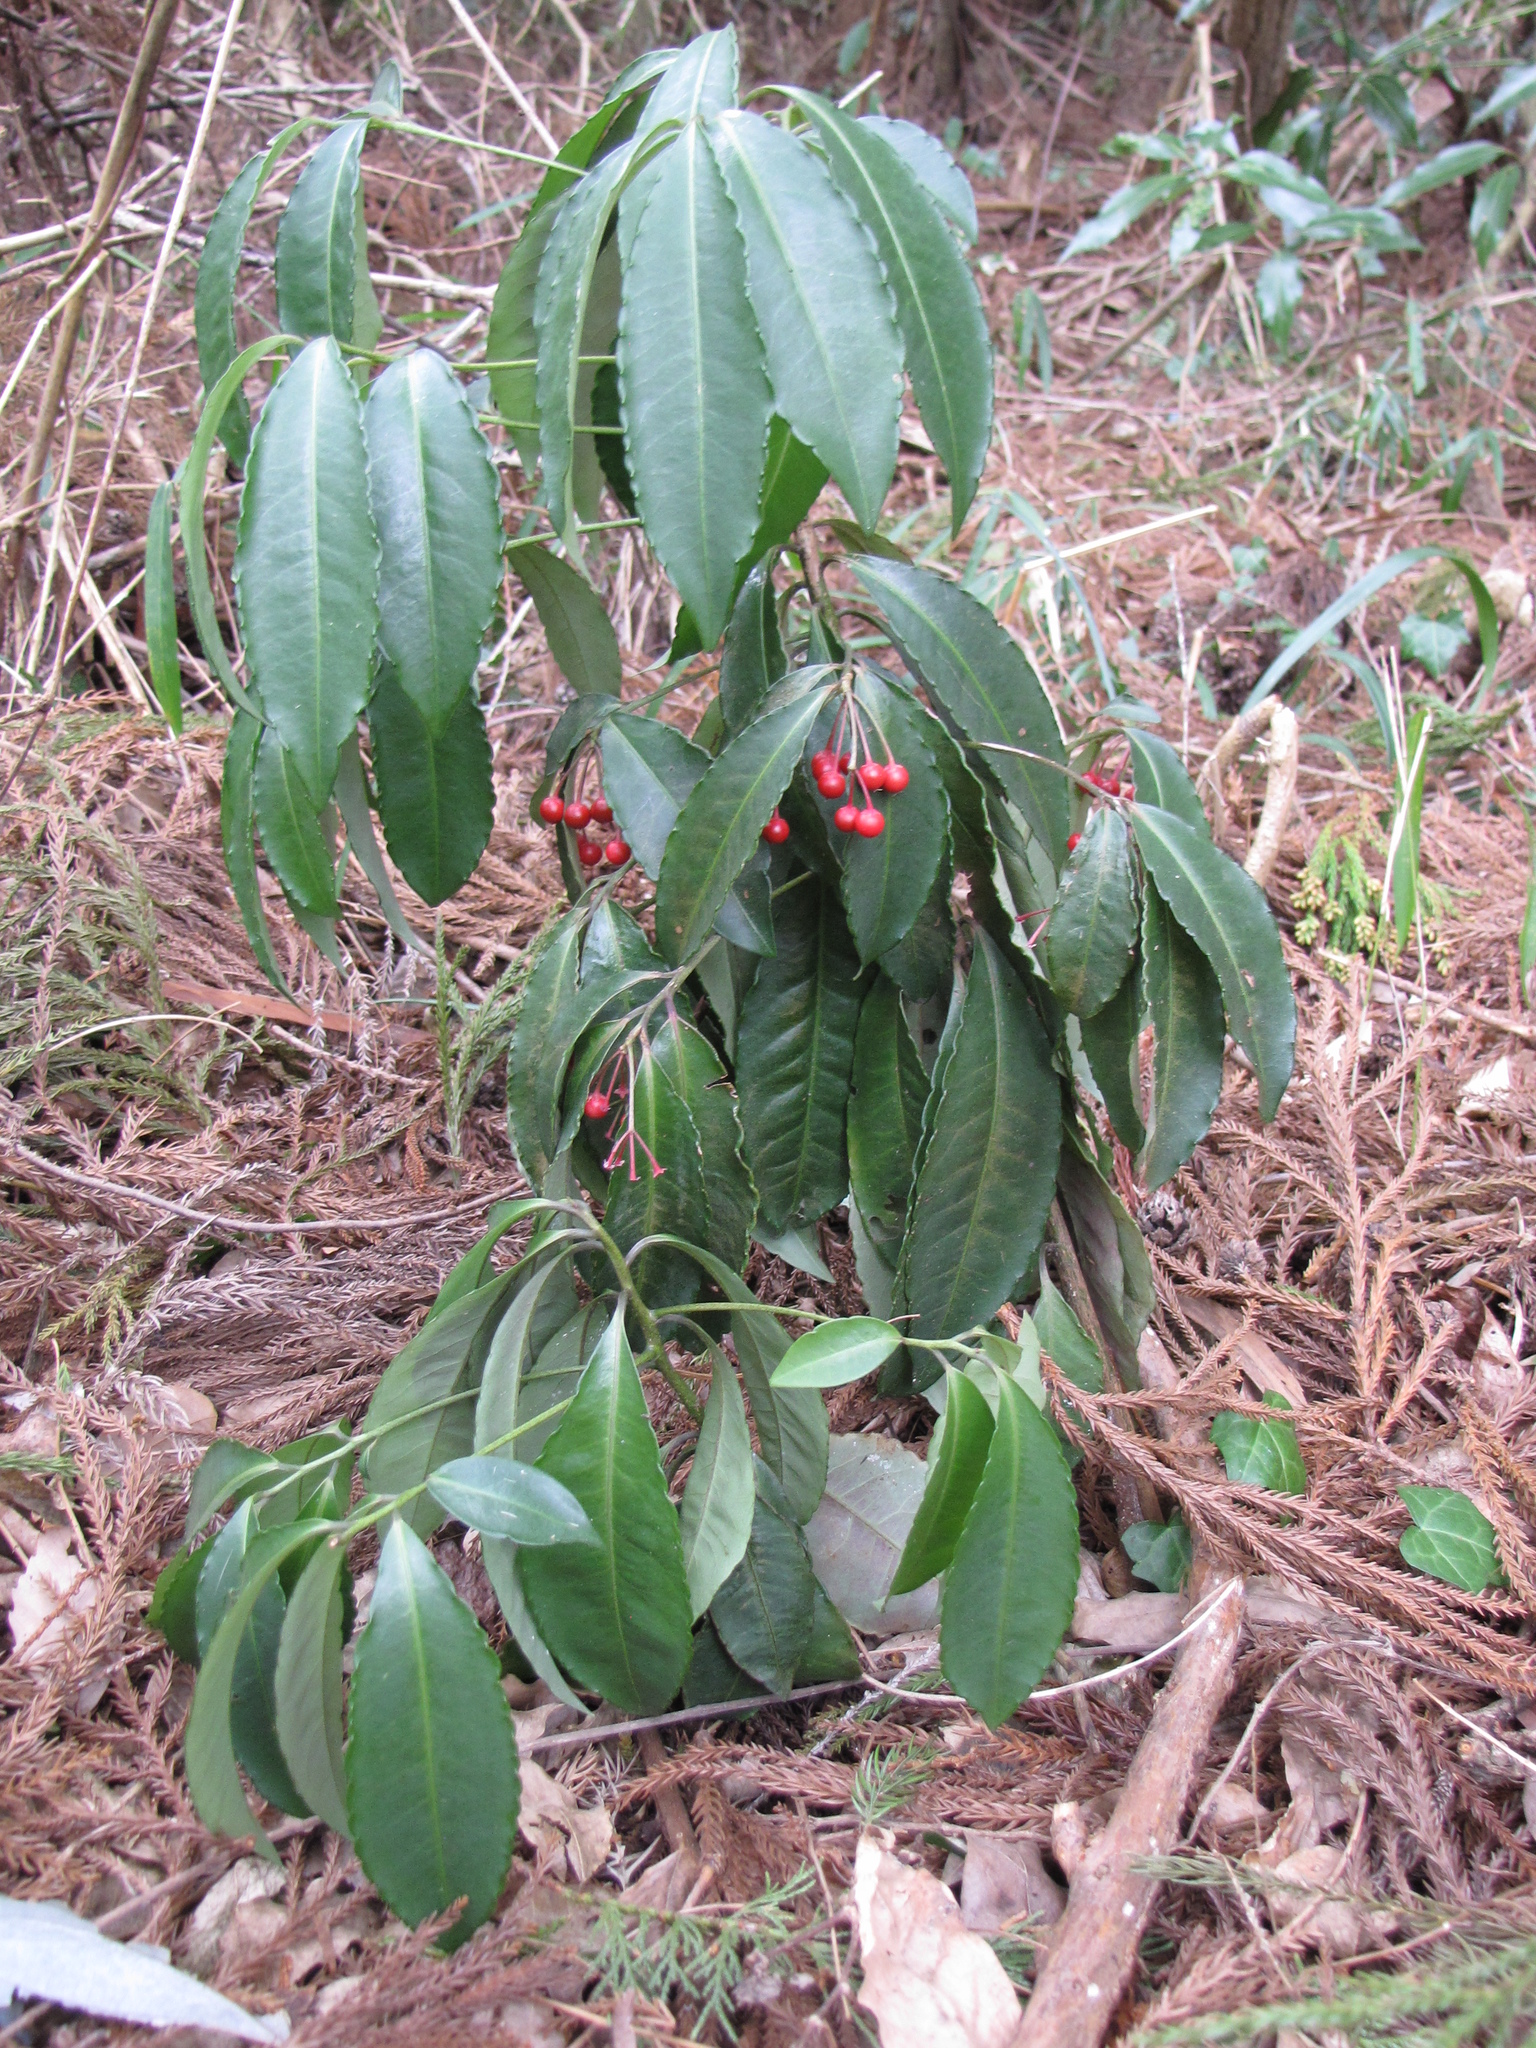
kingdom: Plantae
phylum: Tracheophyta
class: Magnoliopsida
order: Ericales
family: Primulaceae
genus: Ardisia
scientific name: Ardisia crenata
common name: Hen's eyes
